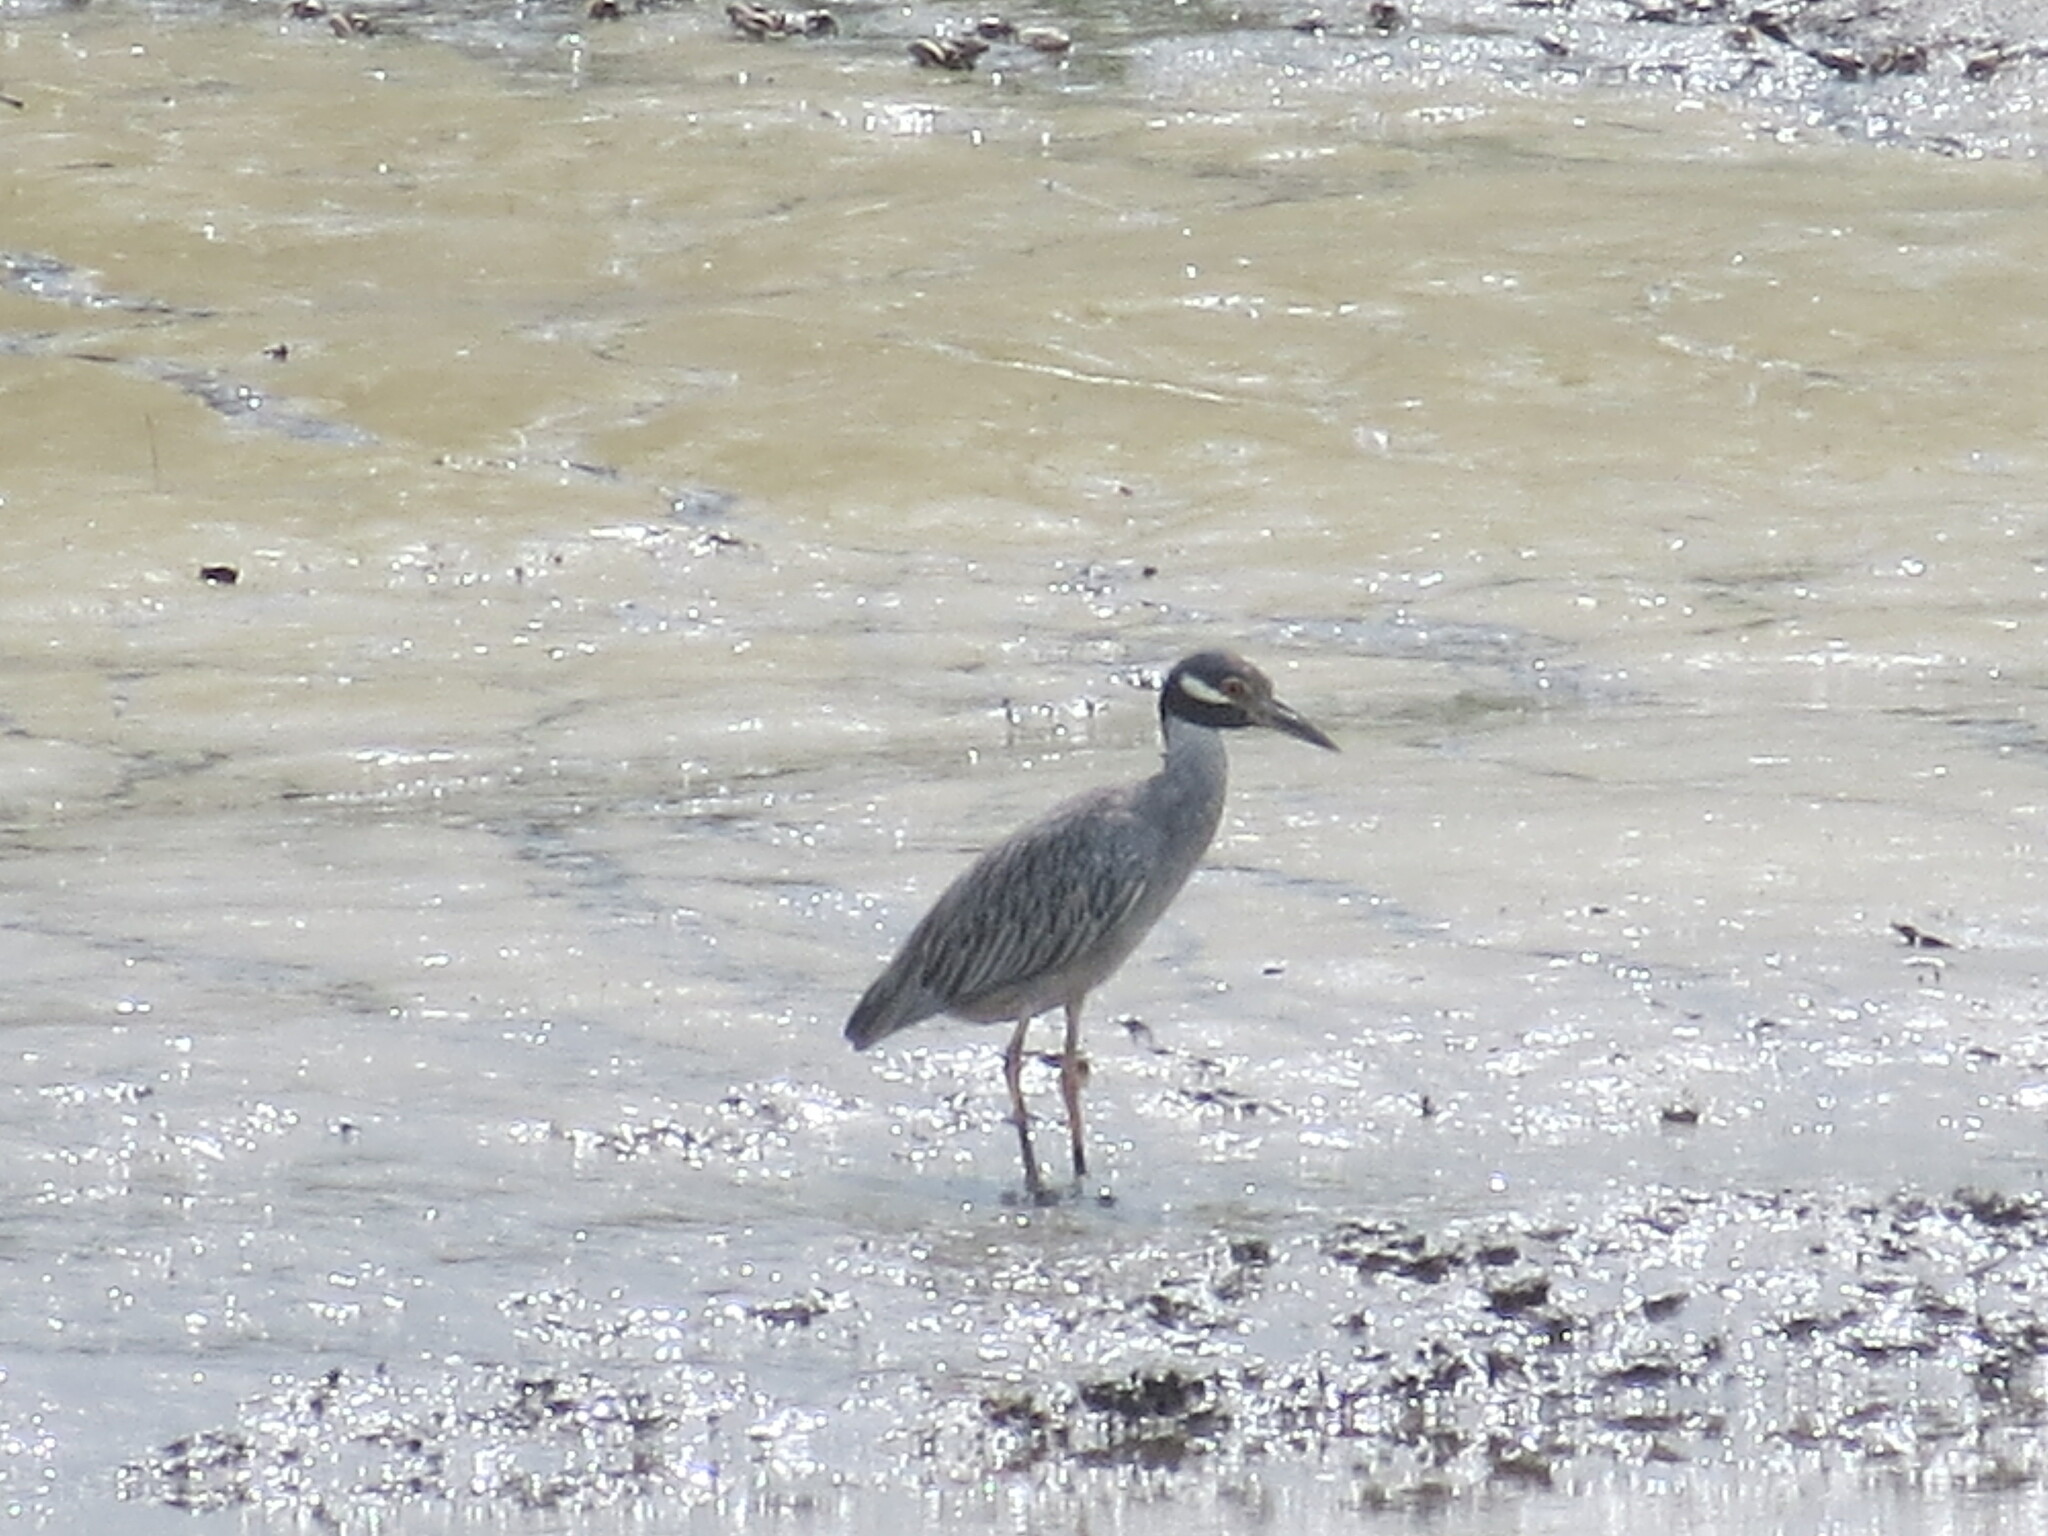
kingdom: Animalia
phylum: Chordata
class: Aves
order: Pelecaniformes
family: Ardeidae
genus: Nyctanassa
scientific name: Nyctanassa violacea
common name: Yellow-crowned night heron
